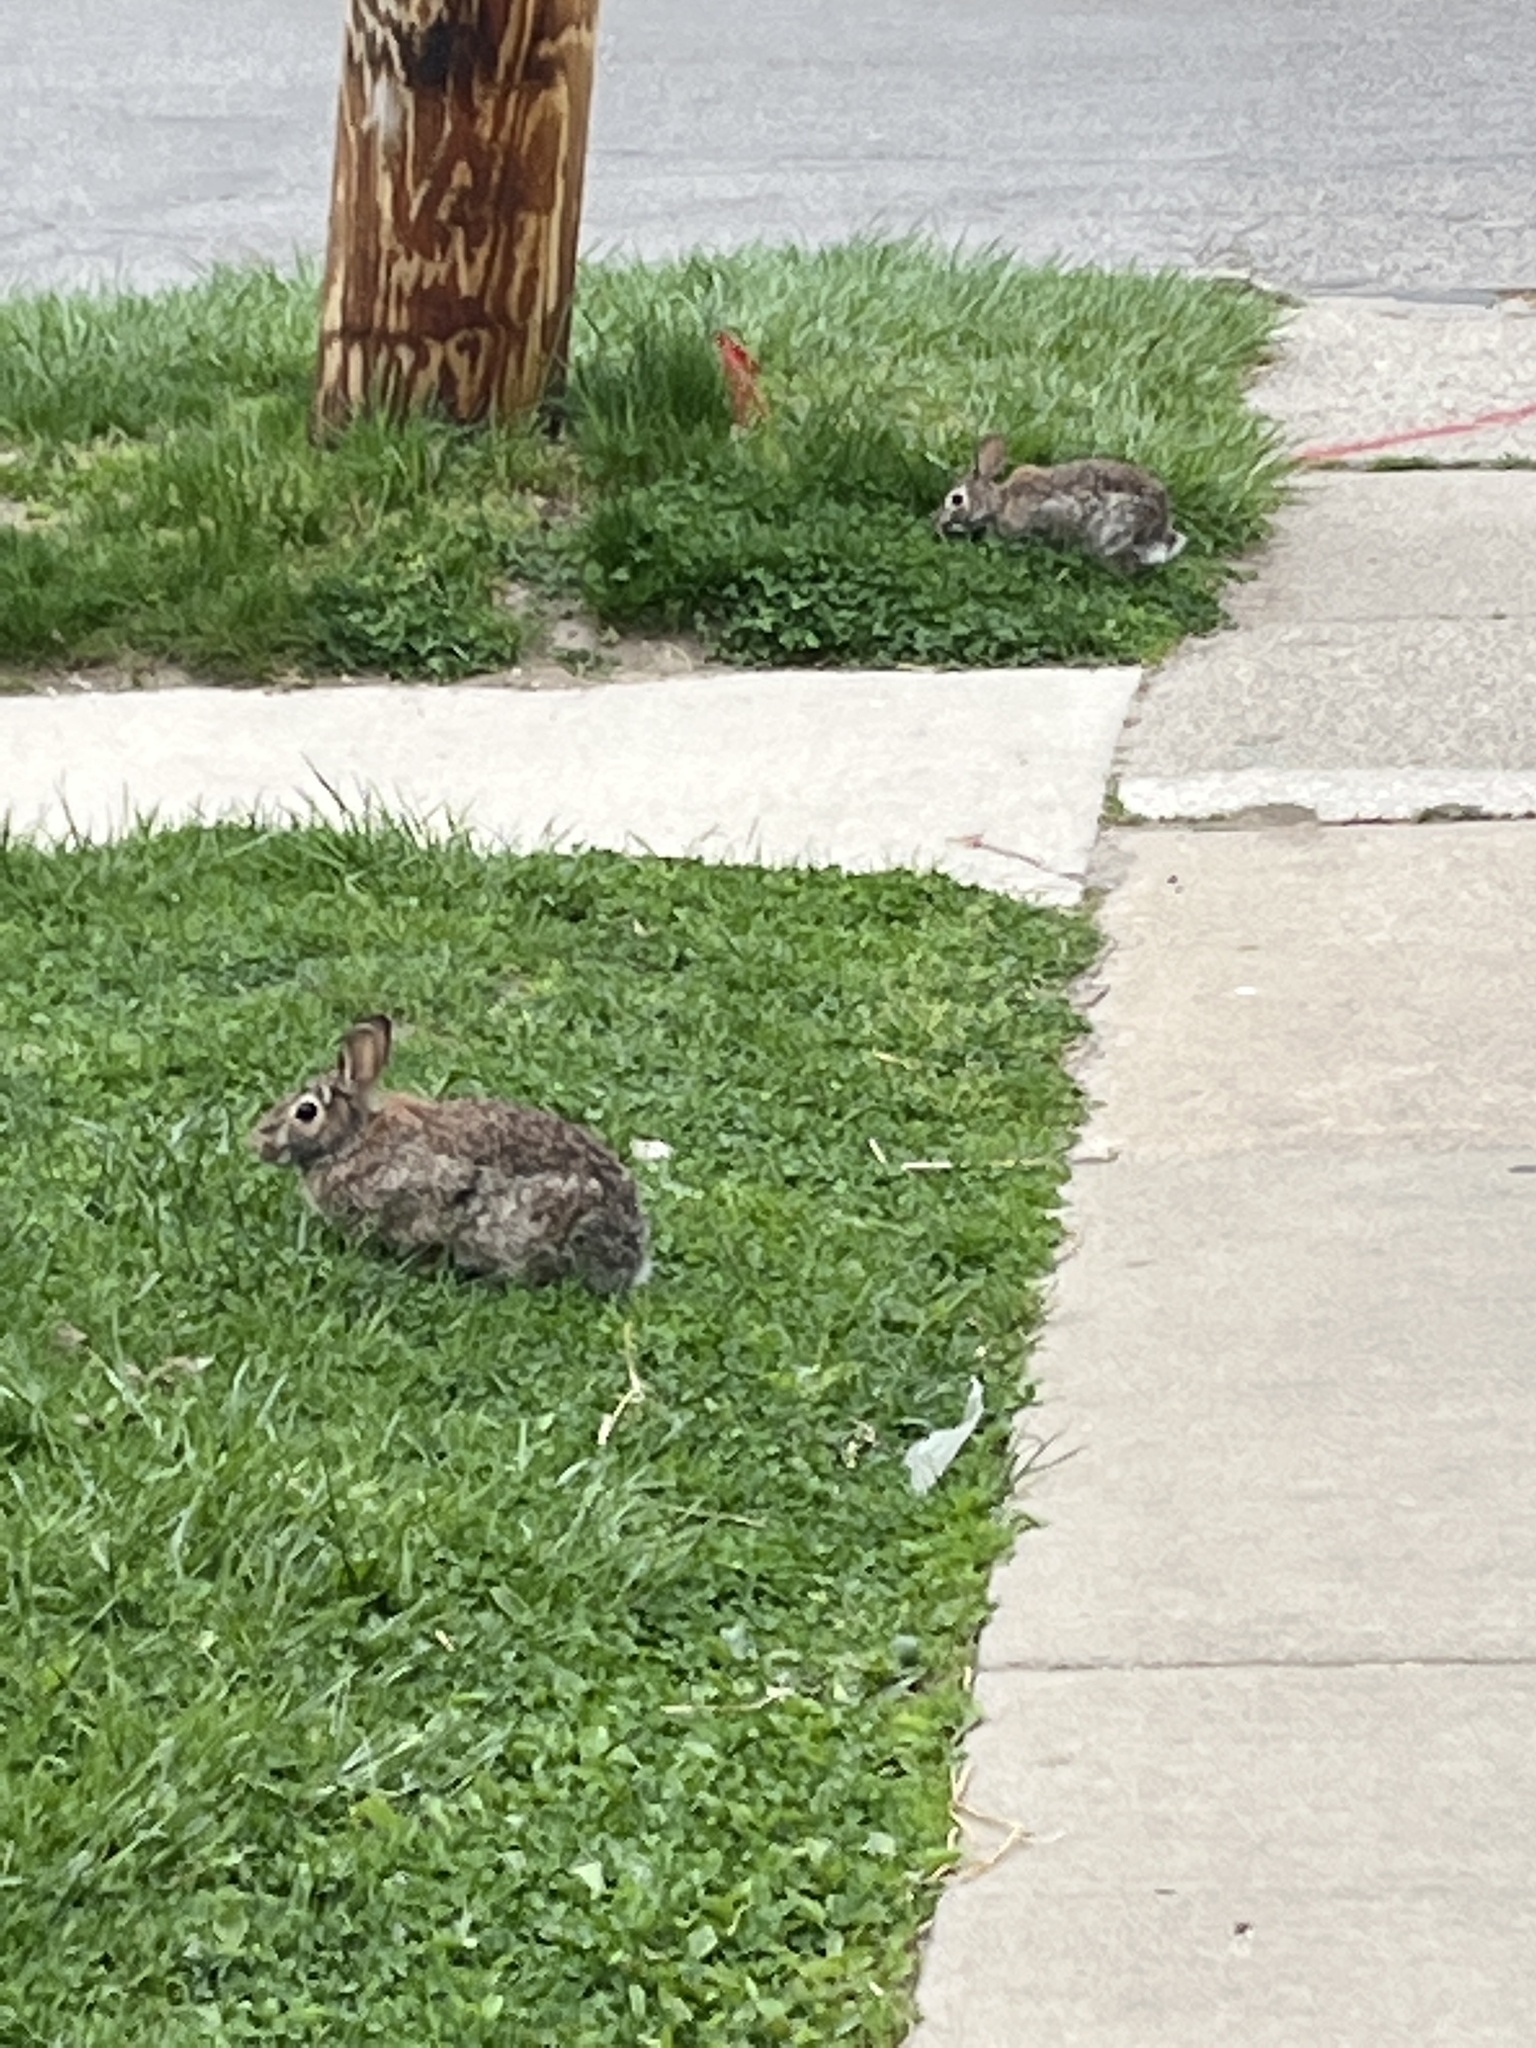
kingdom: Animalia
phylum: Chordata
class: Mammalia
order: Lagomorpha
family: Leporidae
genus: Sylvilagus
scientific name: Sylvilagus floridanus
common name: Eastern cottontail
